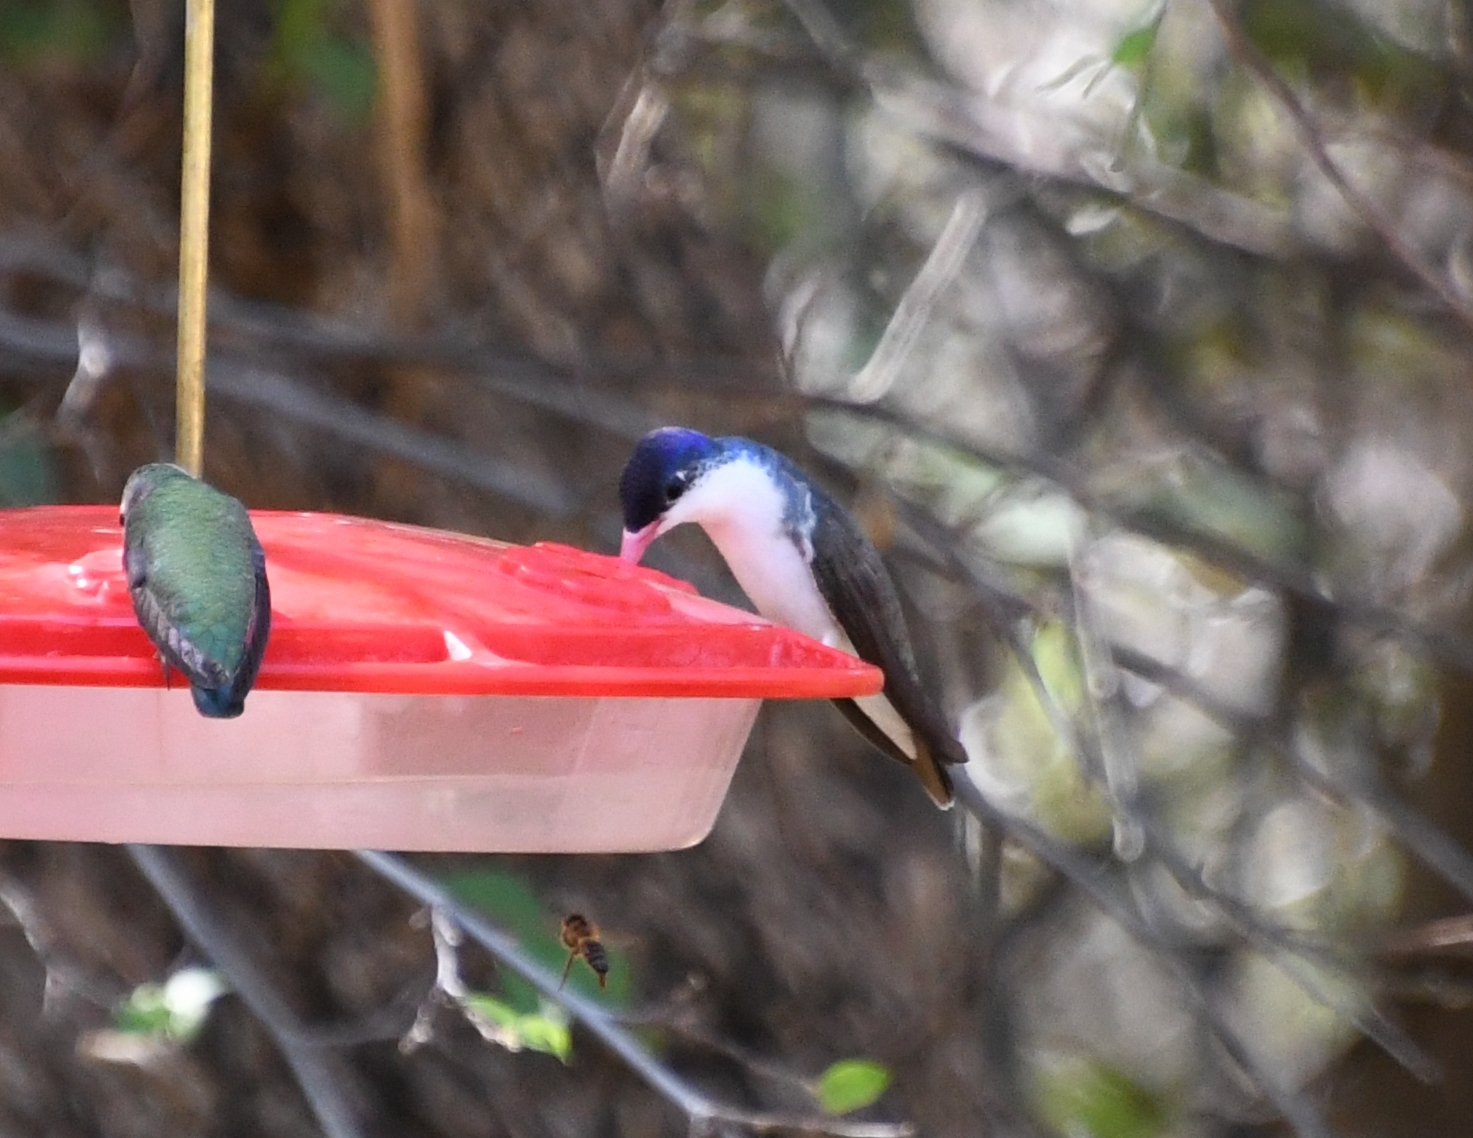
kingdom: Animalia
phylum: Chordata
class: Aves
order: Apodiformes
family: Trochilidae
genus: Leucolia
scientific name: Leucolia violiceps
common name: Violet-crowned hummingbird
